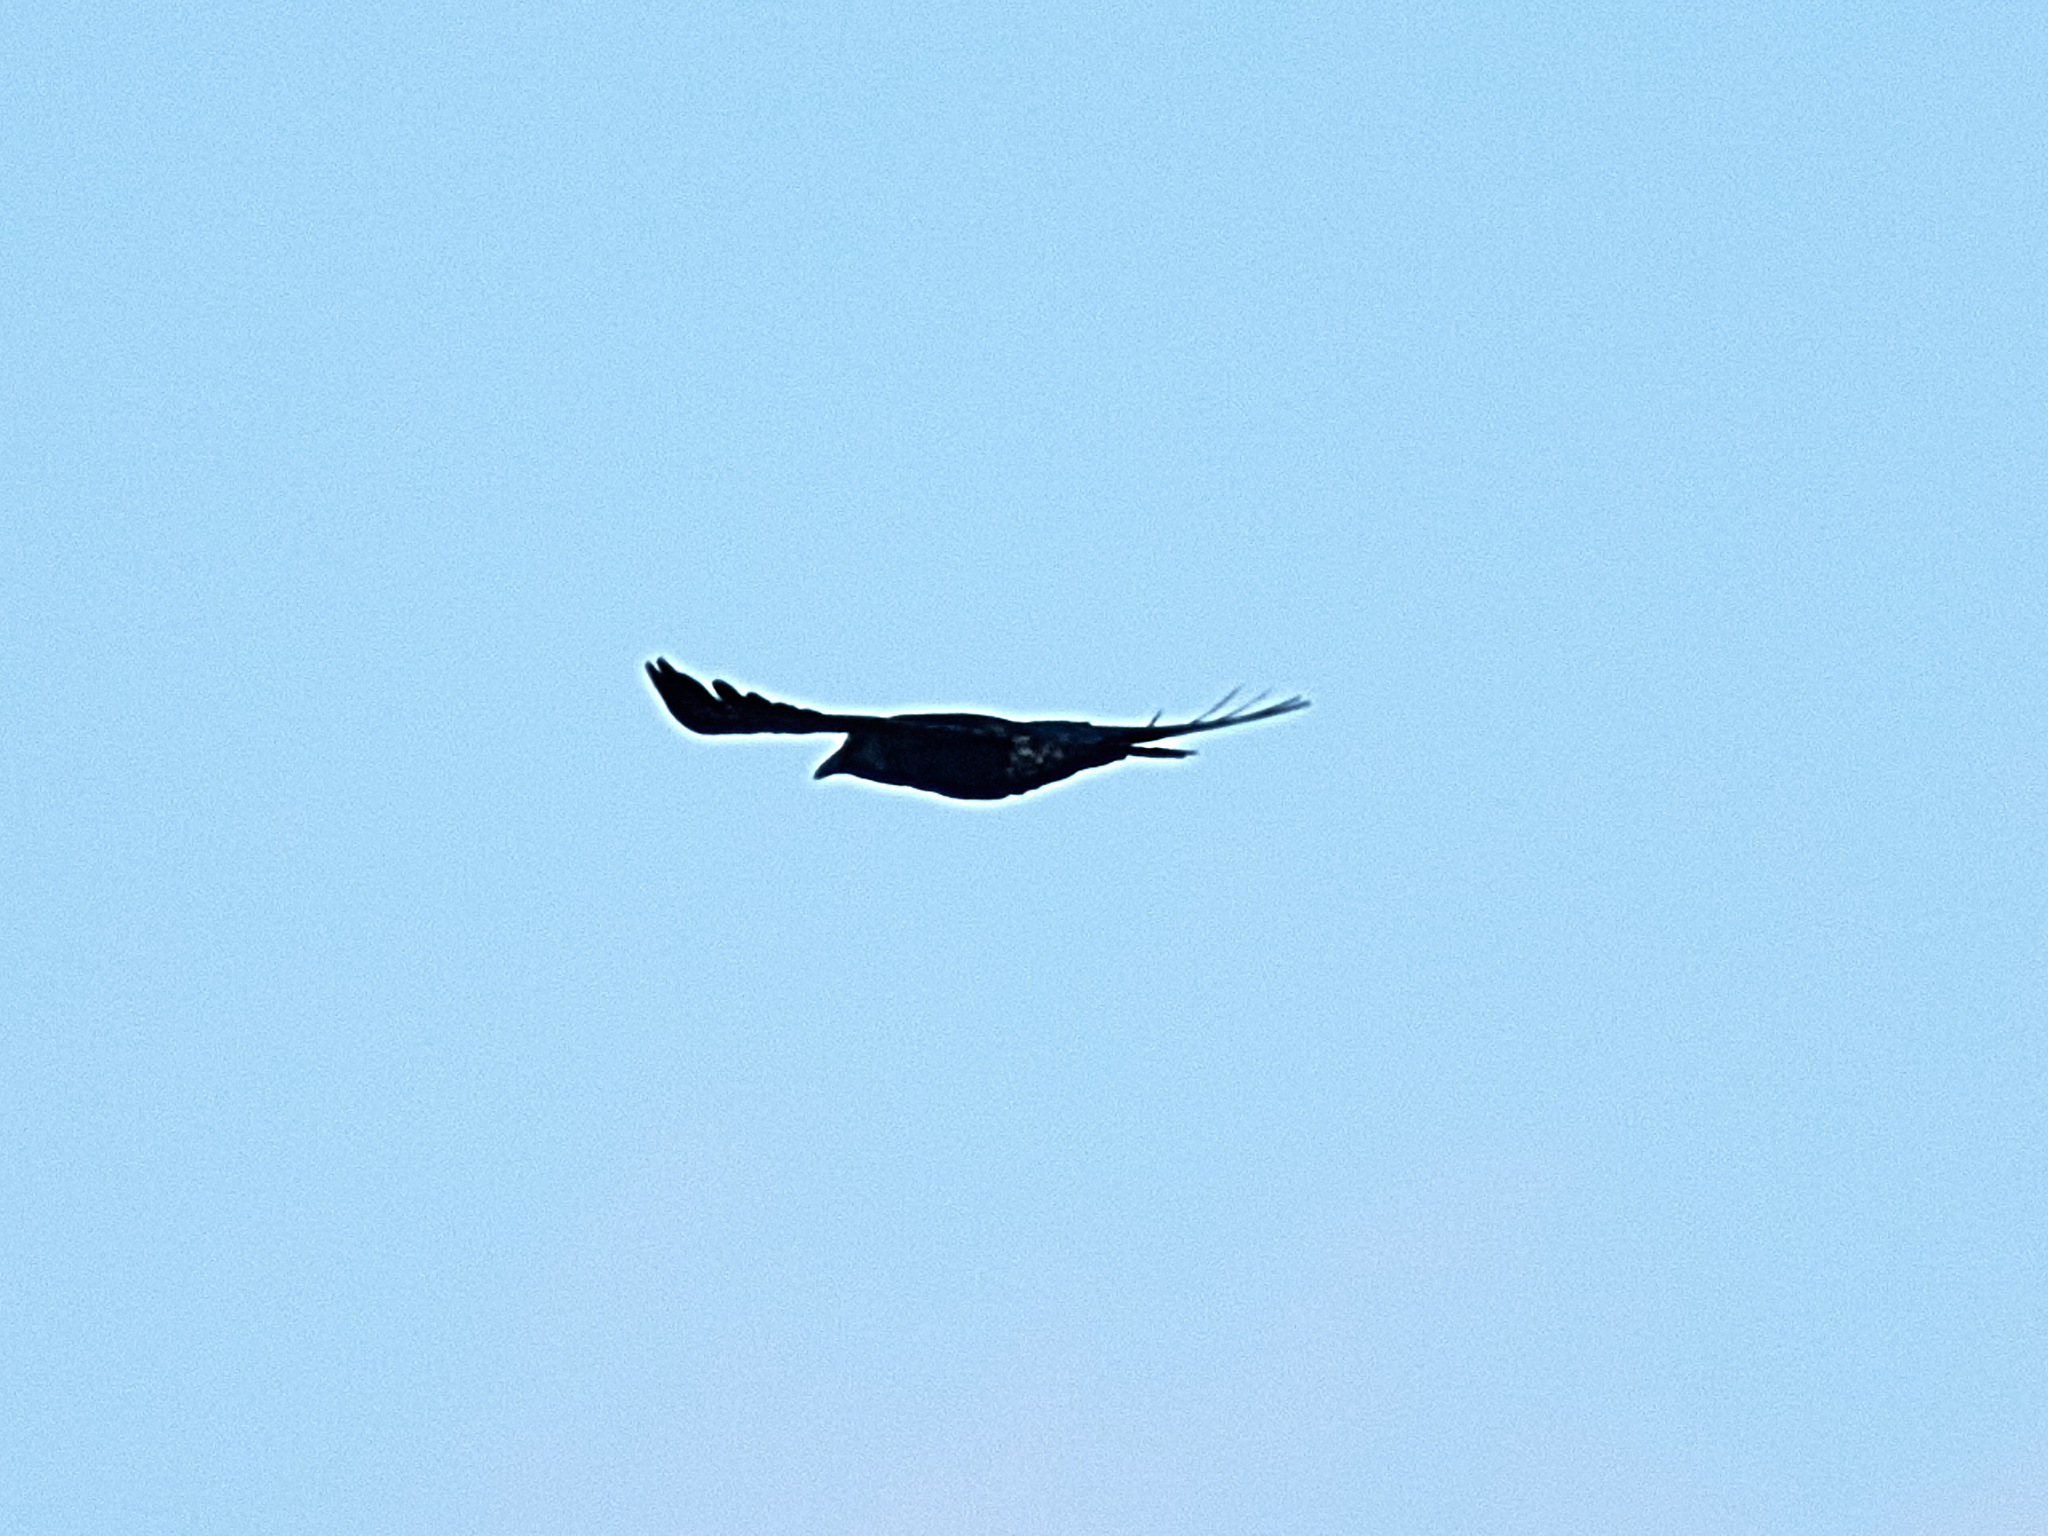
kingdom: Animalia
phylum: Chordata
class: Aves
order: Passeriformes
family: Corvidae
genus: Corvus
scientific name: Corvus corax
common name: Common raven
